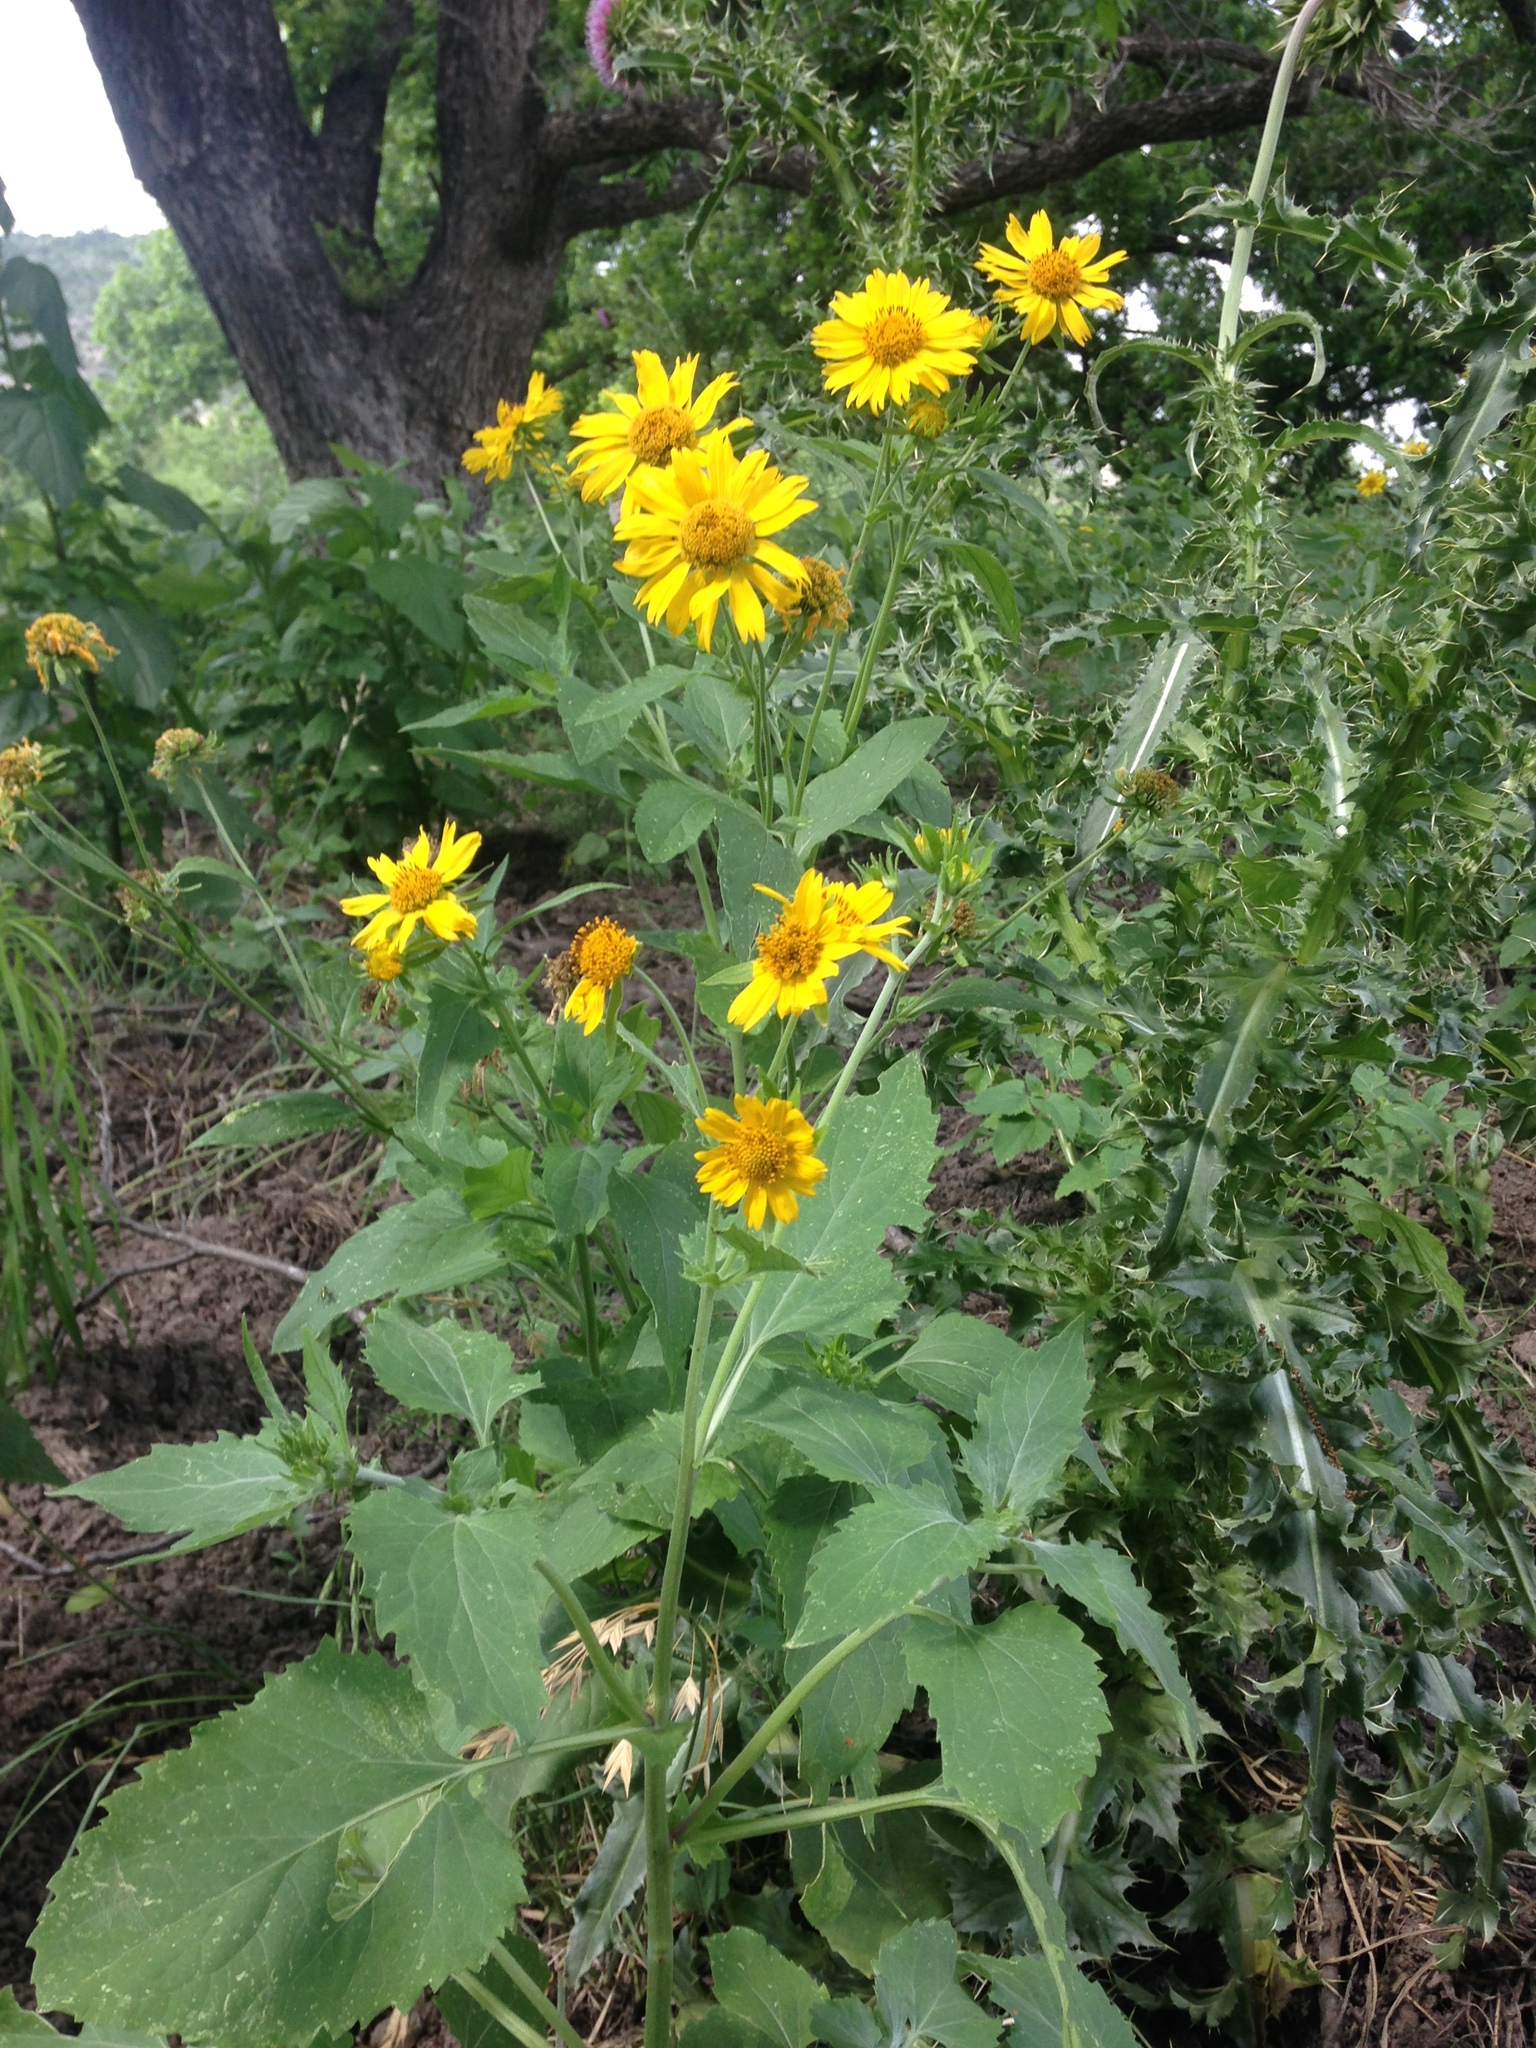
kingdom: Plantae
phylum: Tracheophyta
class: Magnoliopsida
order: Asterales
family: Asteraceae
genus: Verbesina
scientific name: Verbesina encelioides
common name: Golden crownbeard
